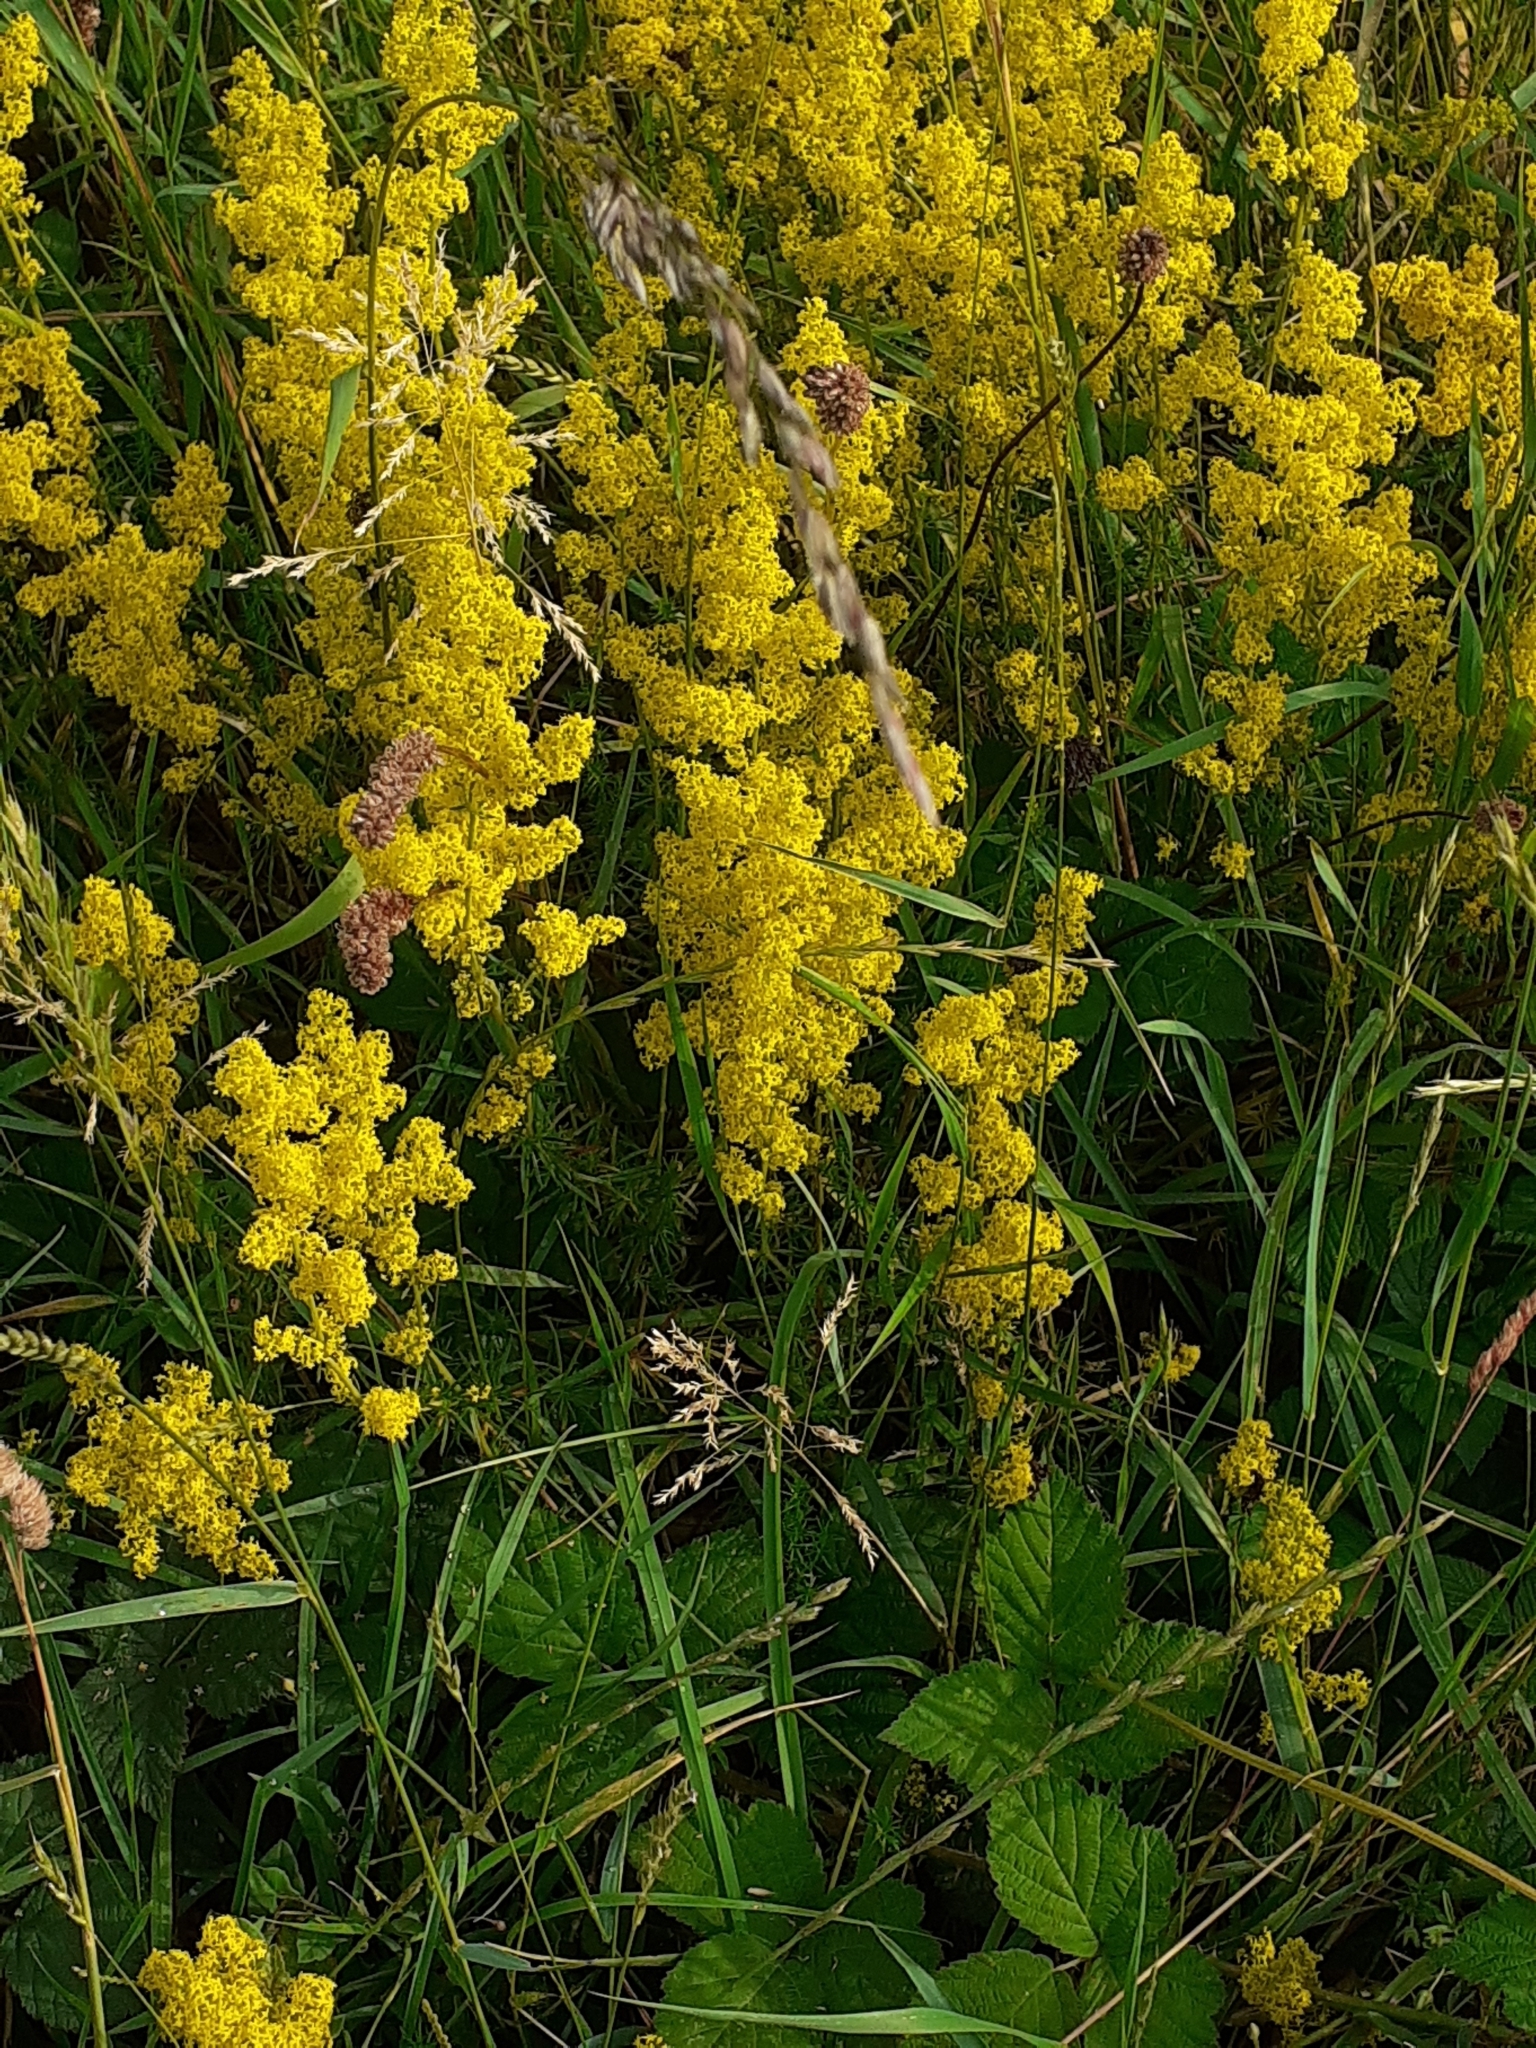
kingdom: Plantae
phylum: Tracheophyta
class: Magnoliopsida
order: Gentianales
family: Rubiaceae
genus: Galium
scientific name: Galium verum
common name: Lady's bedstraw
